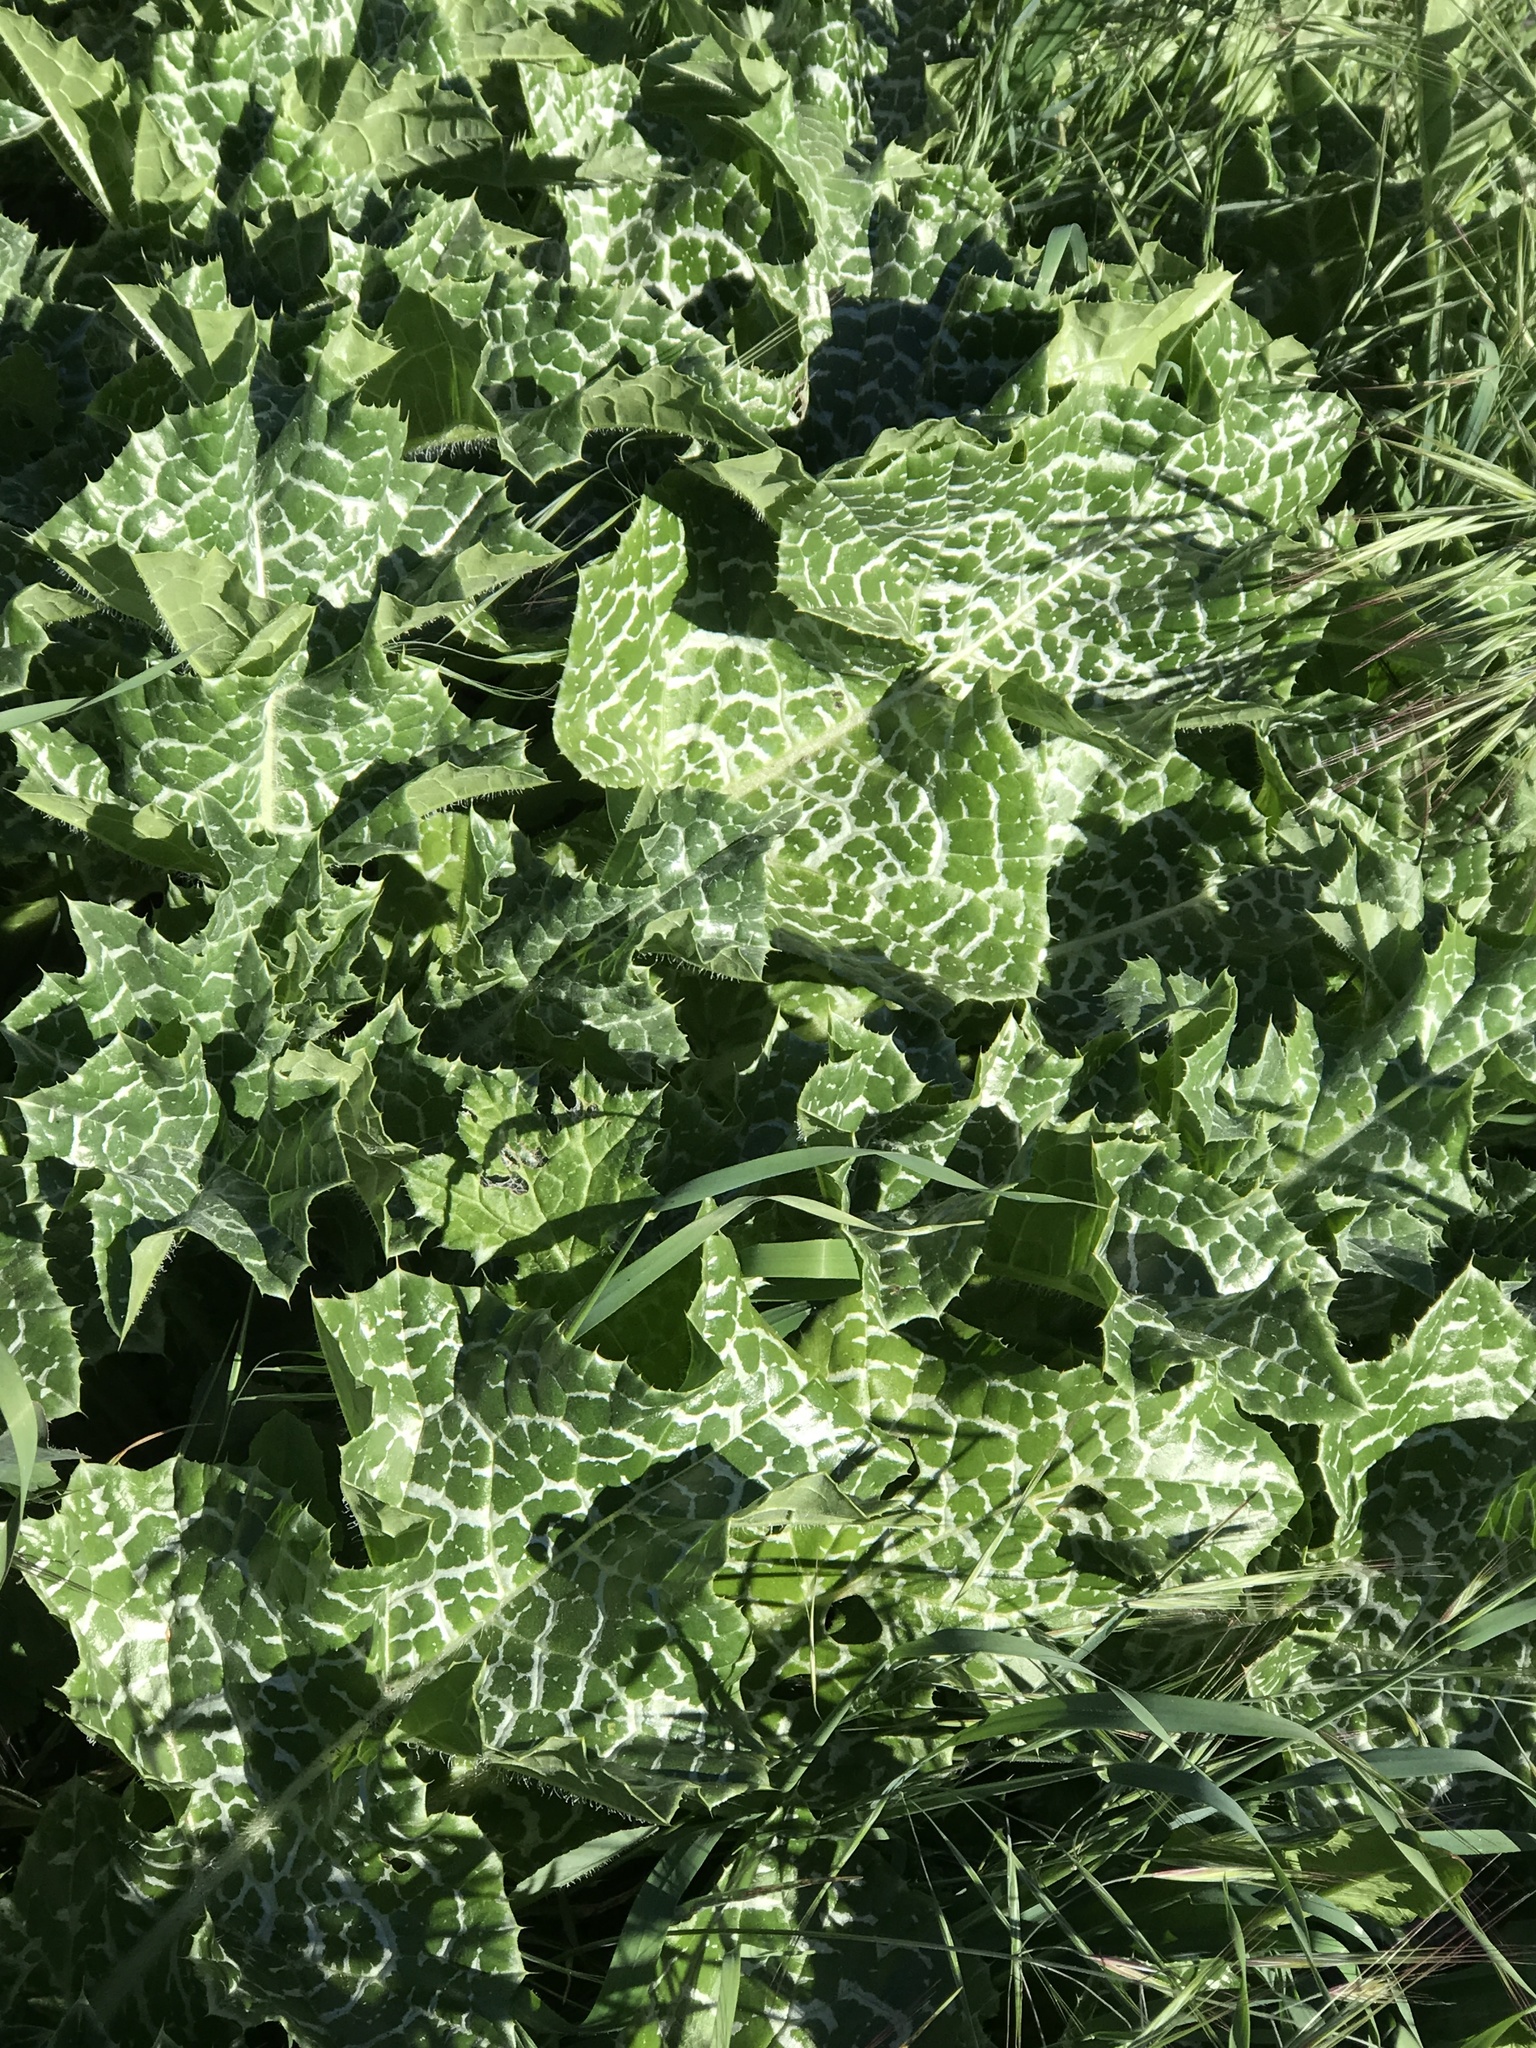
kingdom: Plantae
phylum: Tracheophyta
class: Magnoliopsida
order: Asterales
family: Asteraceae
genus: Silybum
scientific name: Silybum marianum
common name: Milk thistle
